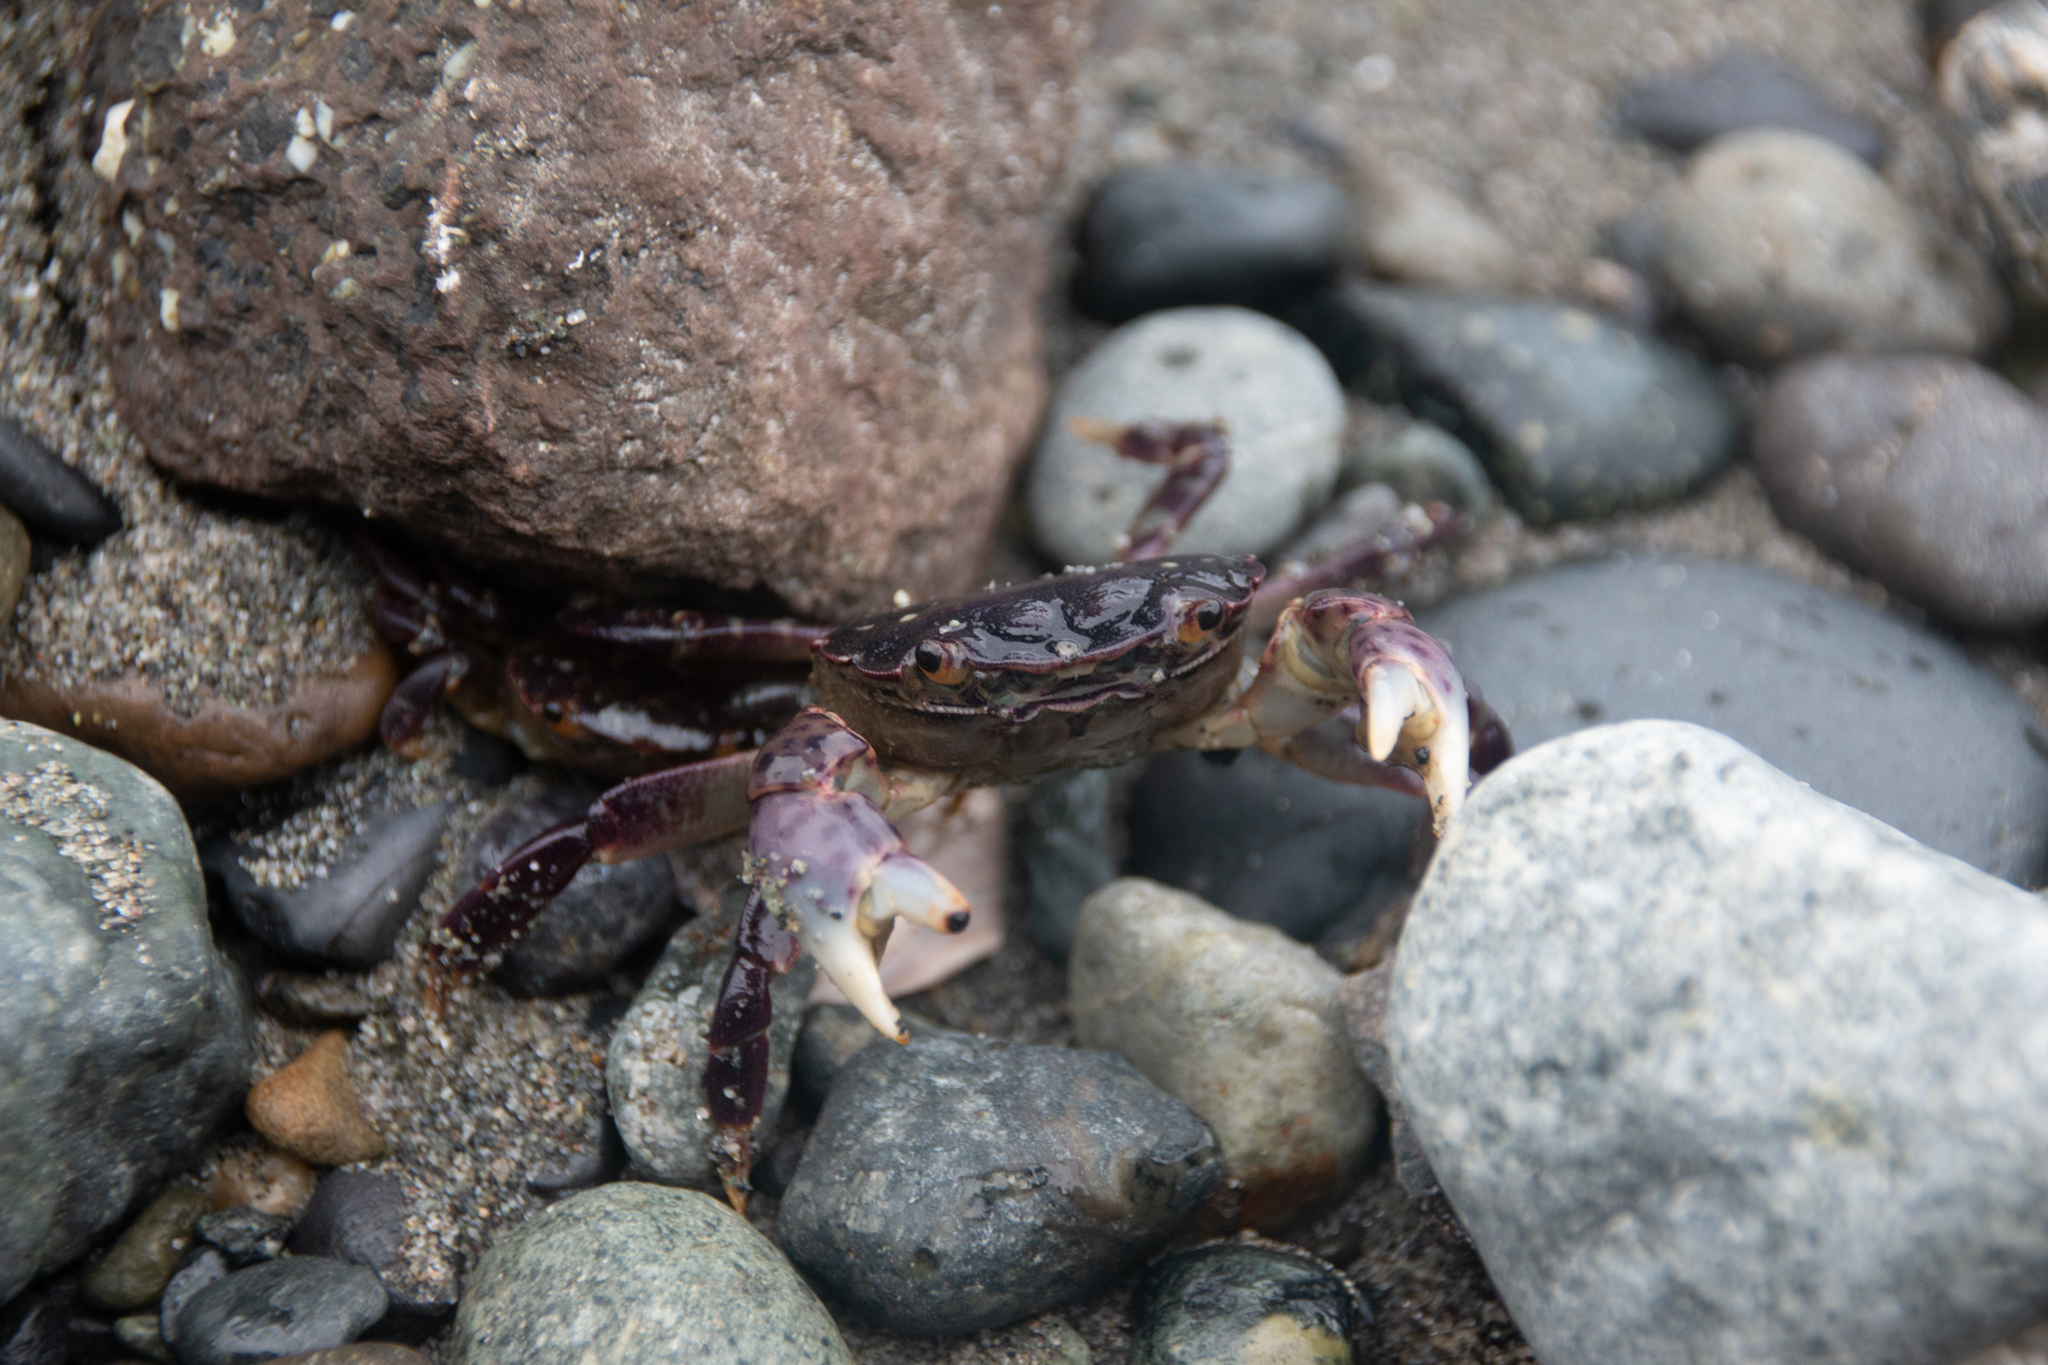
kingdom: Animalia
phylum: Arthropoda
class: Malacostraca
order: Decapoda
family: Varunidae
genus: Hemigrapsus
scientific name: Hemigrapsus nudus
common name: Purple shore crab
